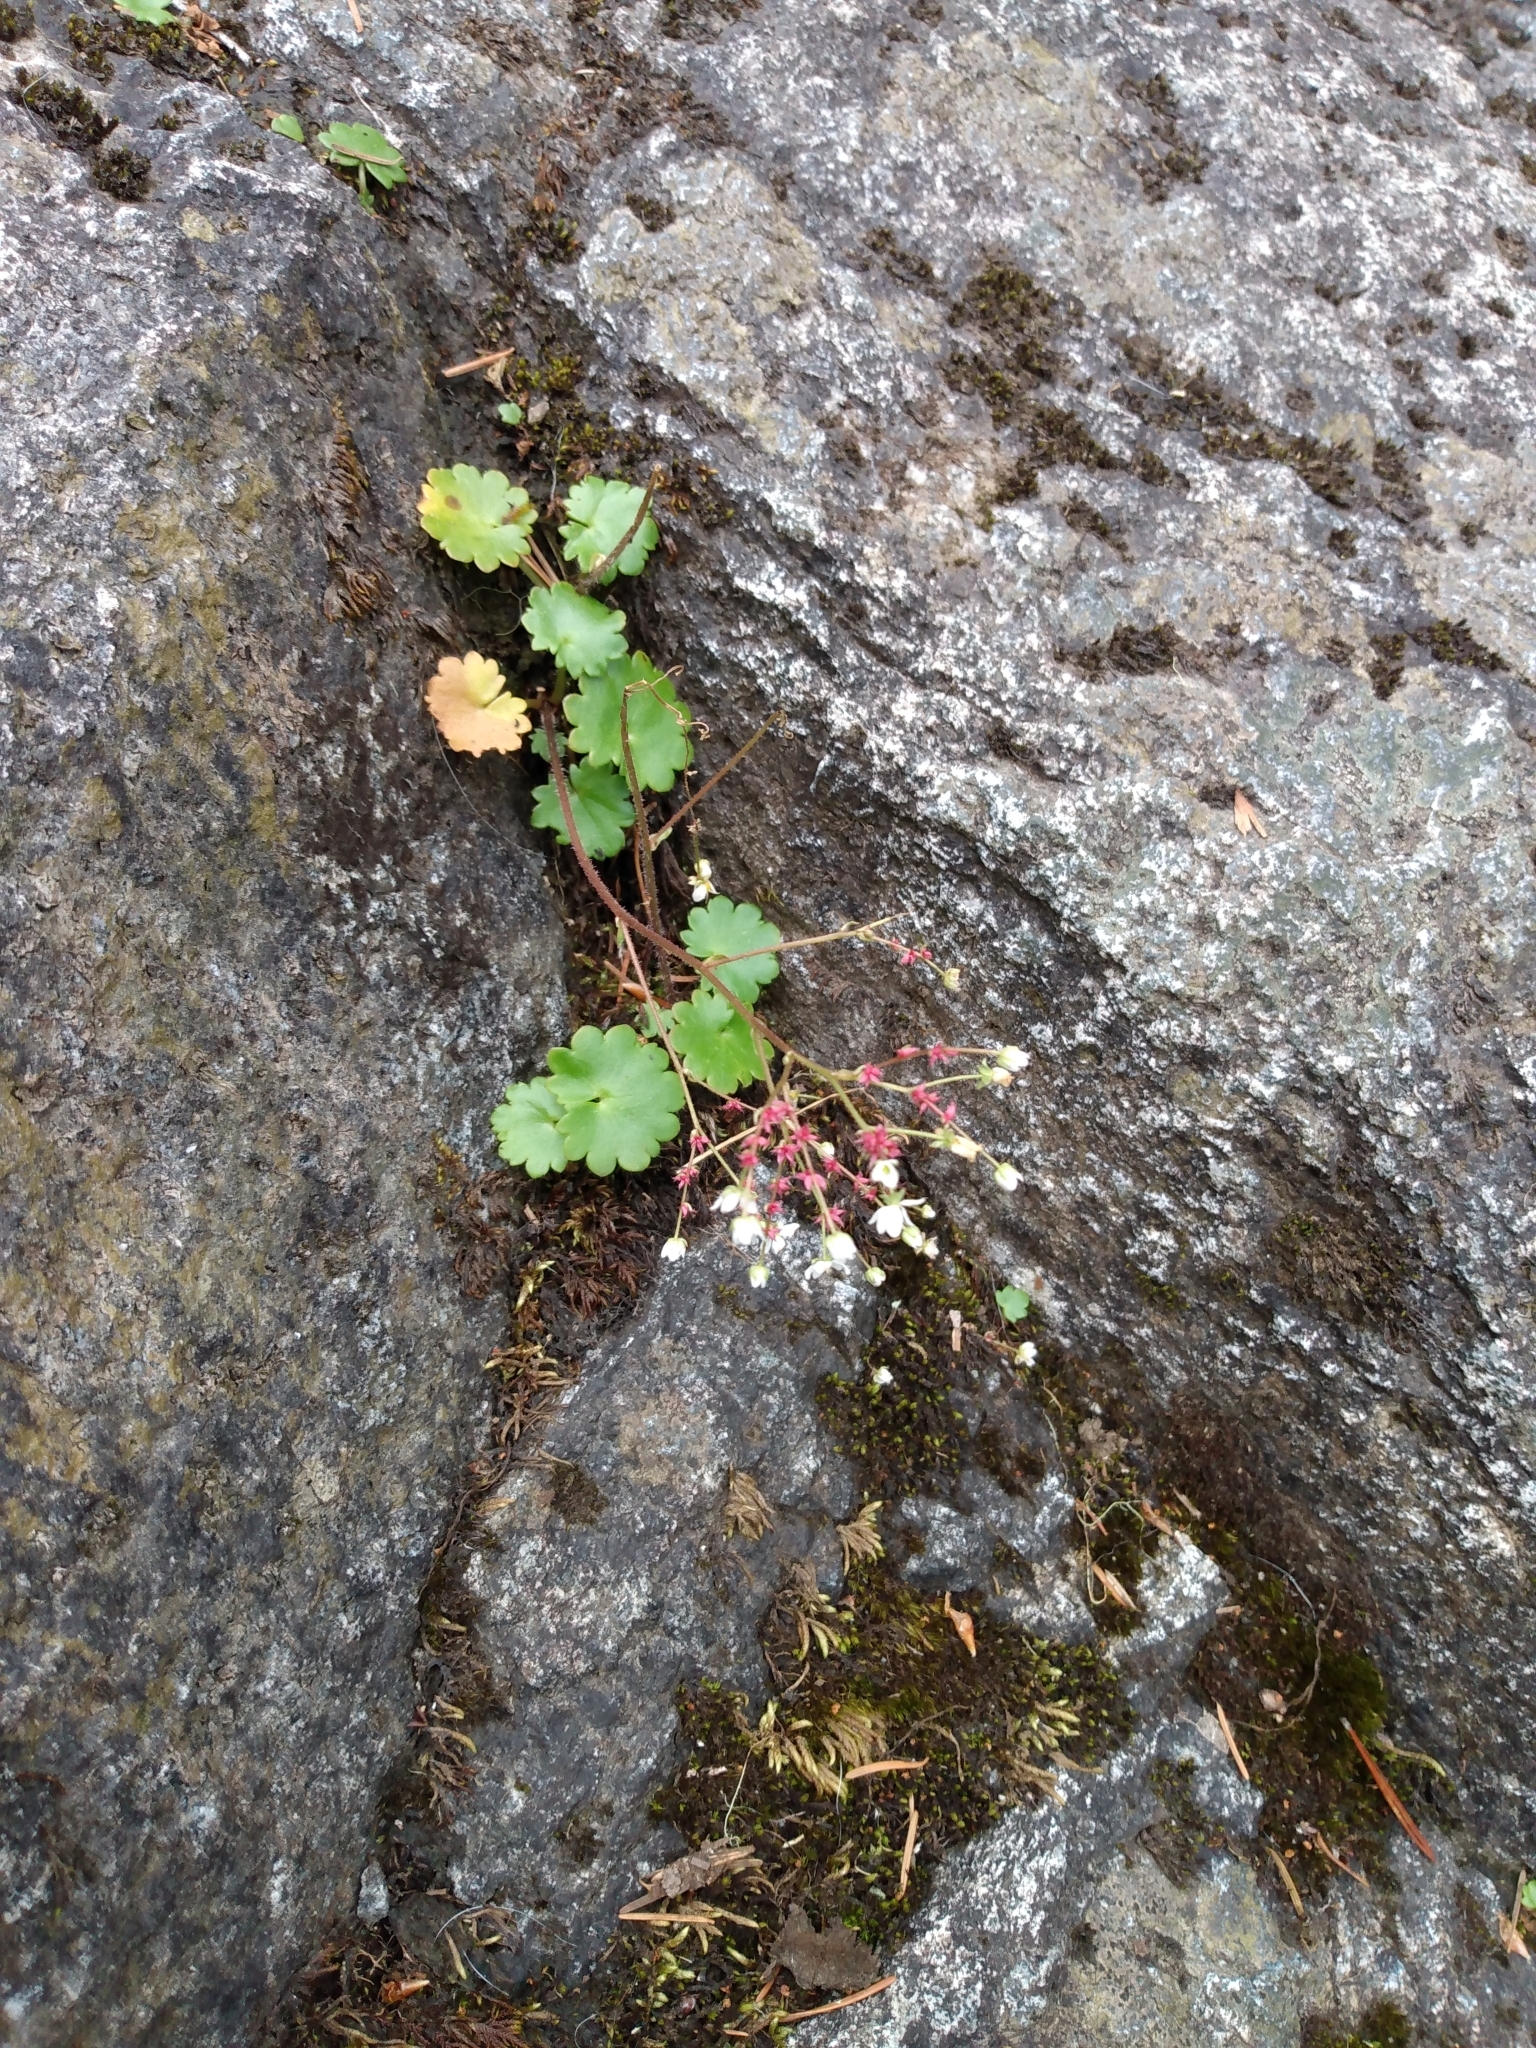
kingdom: Plantae
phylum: Tracheophyta
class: Magnoliopsida
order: Saxifragales
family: Saxifragaceae
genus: Micranthes
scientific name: Micranthes mertensiana
